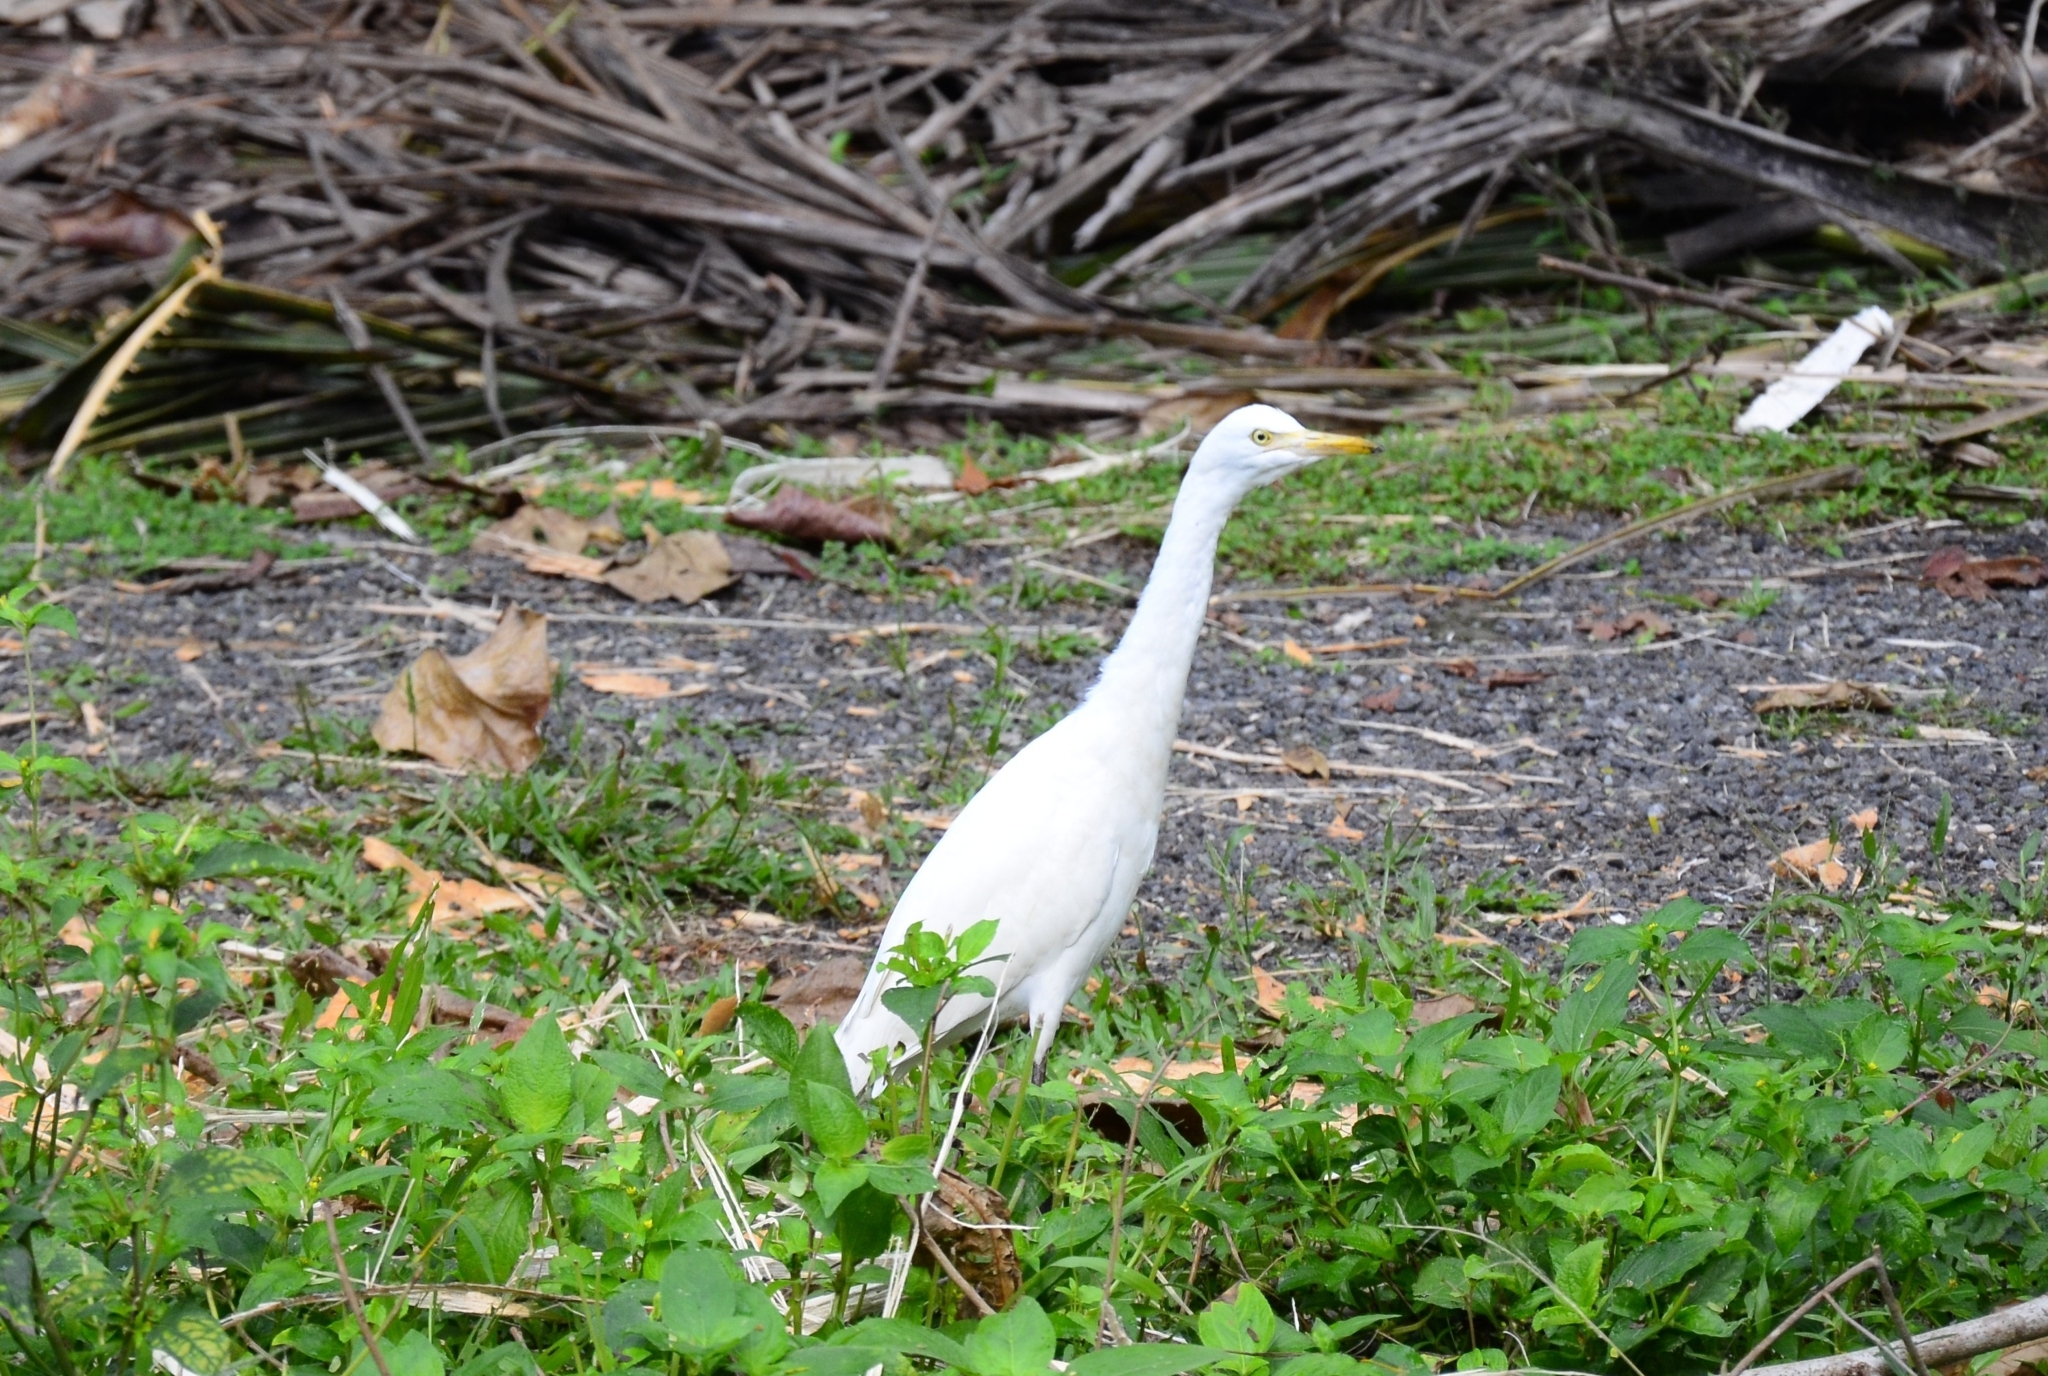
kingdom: Animalia
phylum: Chordata
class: Aves
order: Pelecaniformes
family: Ardeidae
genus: Bubulcus
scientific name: Bubulcus coromandus
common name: Eastern cattle egret
